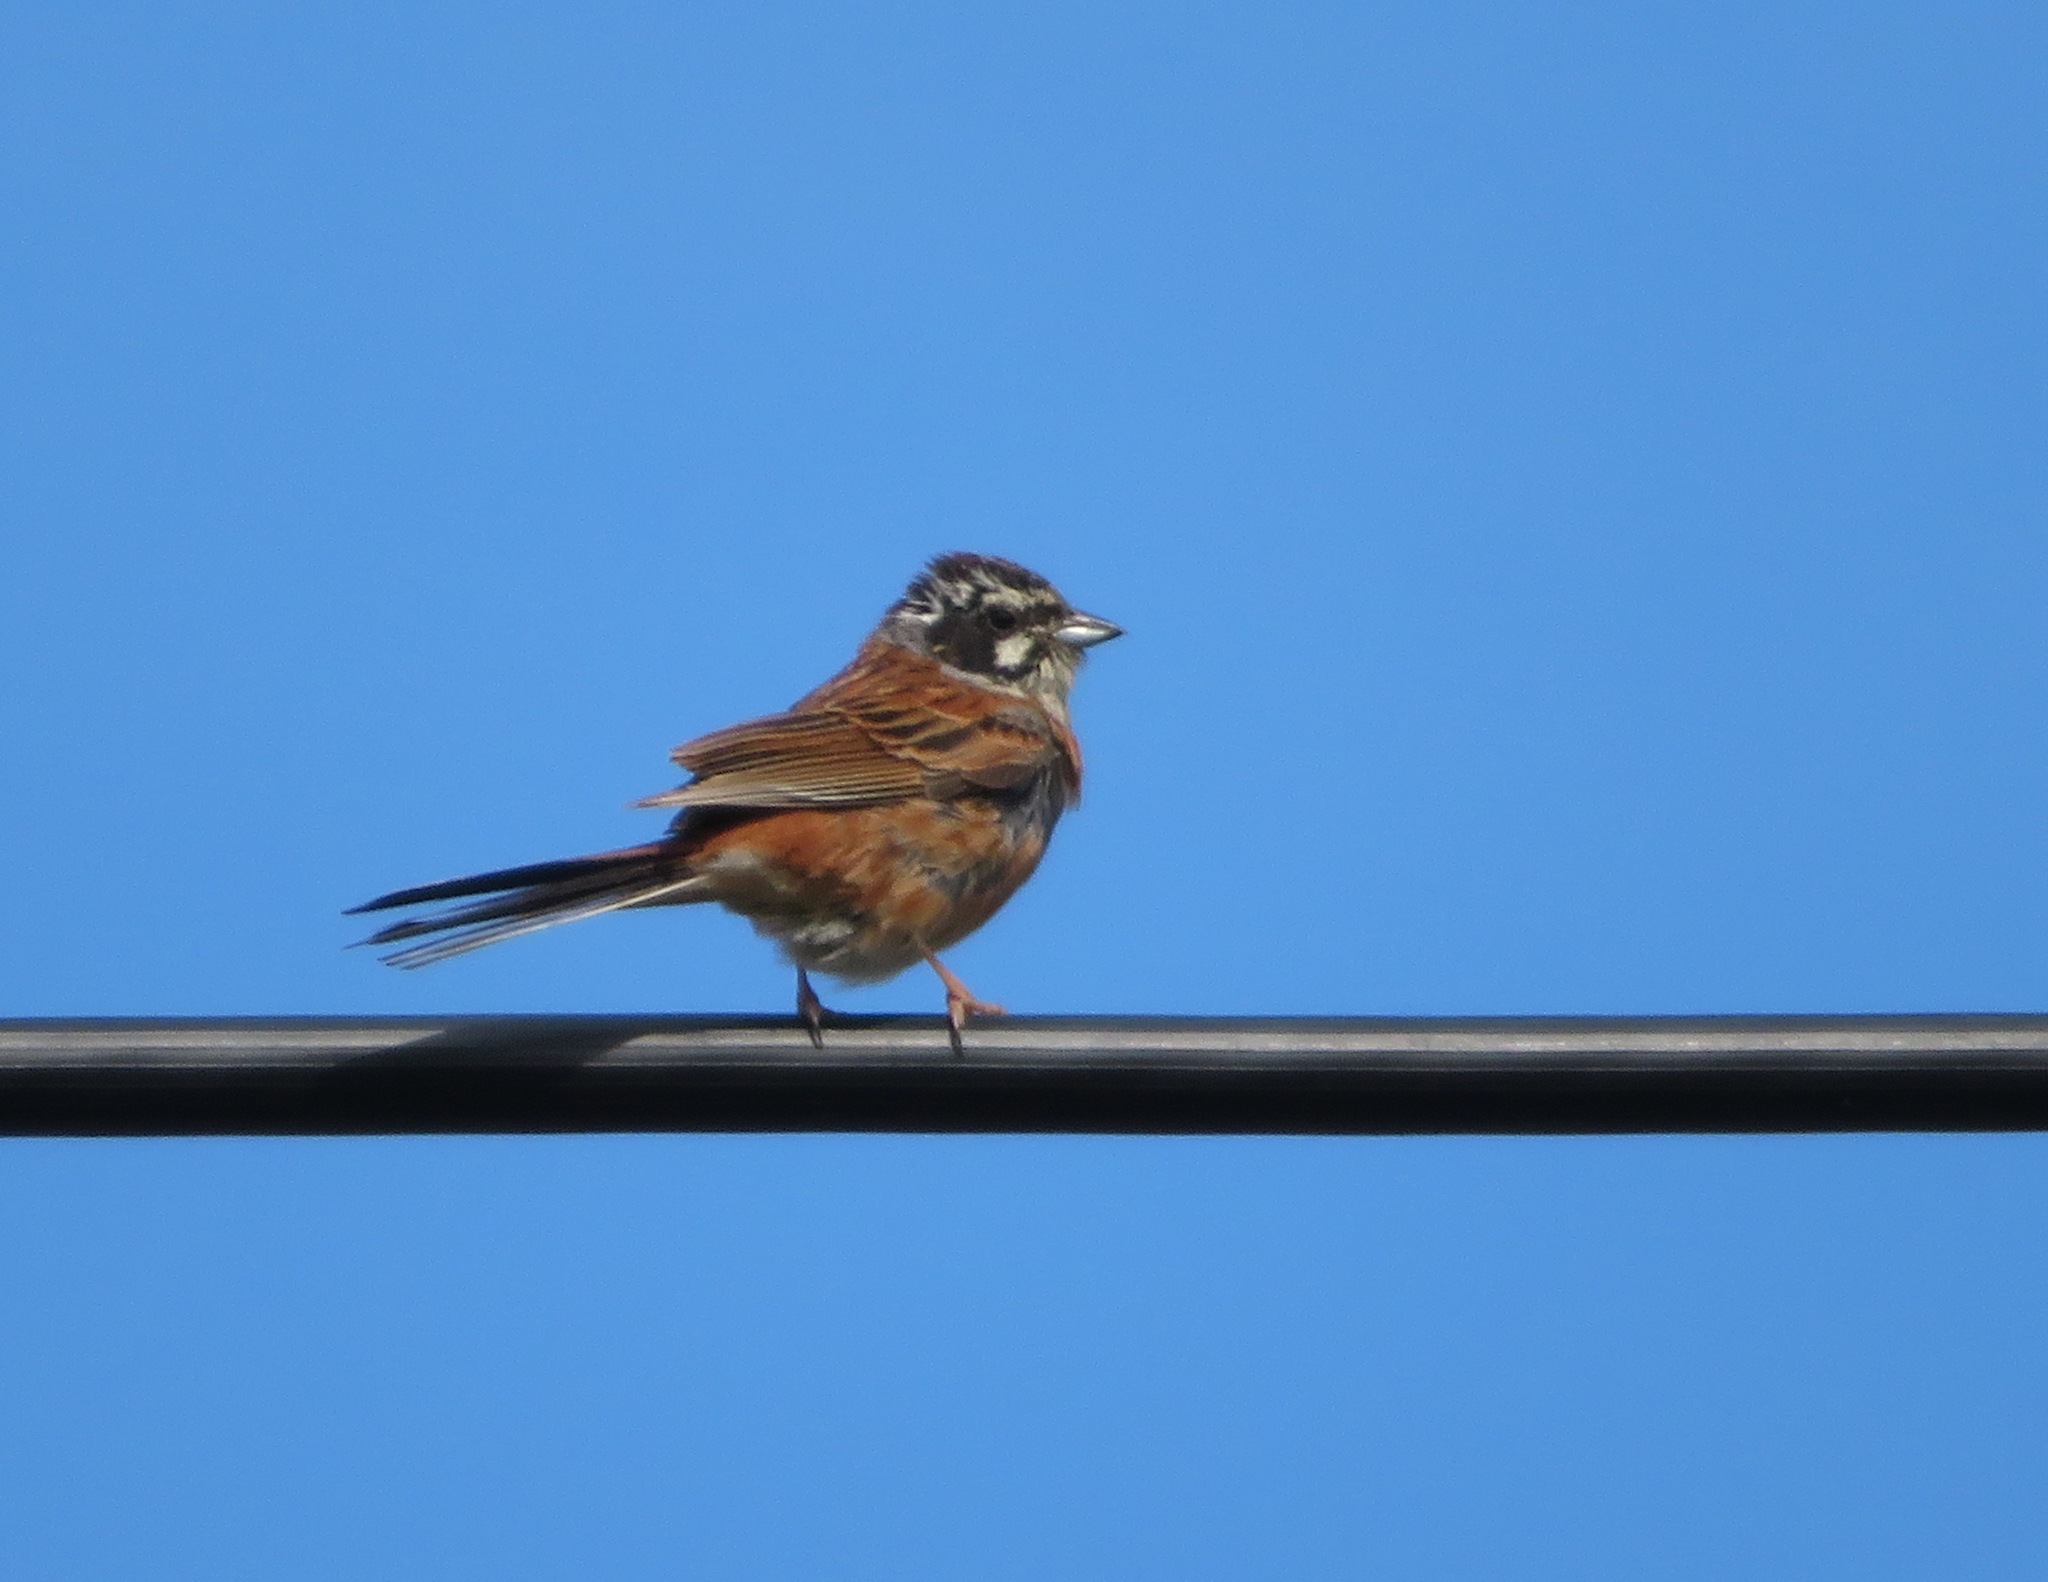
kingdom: Animalia
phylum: Chordata
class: Aves
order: Passeriformes
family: Emberizidae
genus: Emberiza
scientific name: Emberiza cioides
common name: Meadow bunting
